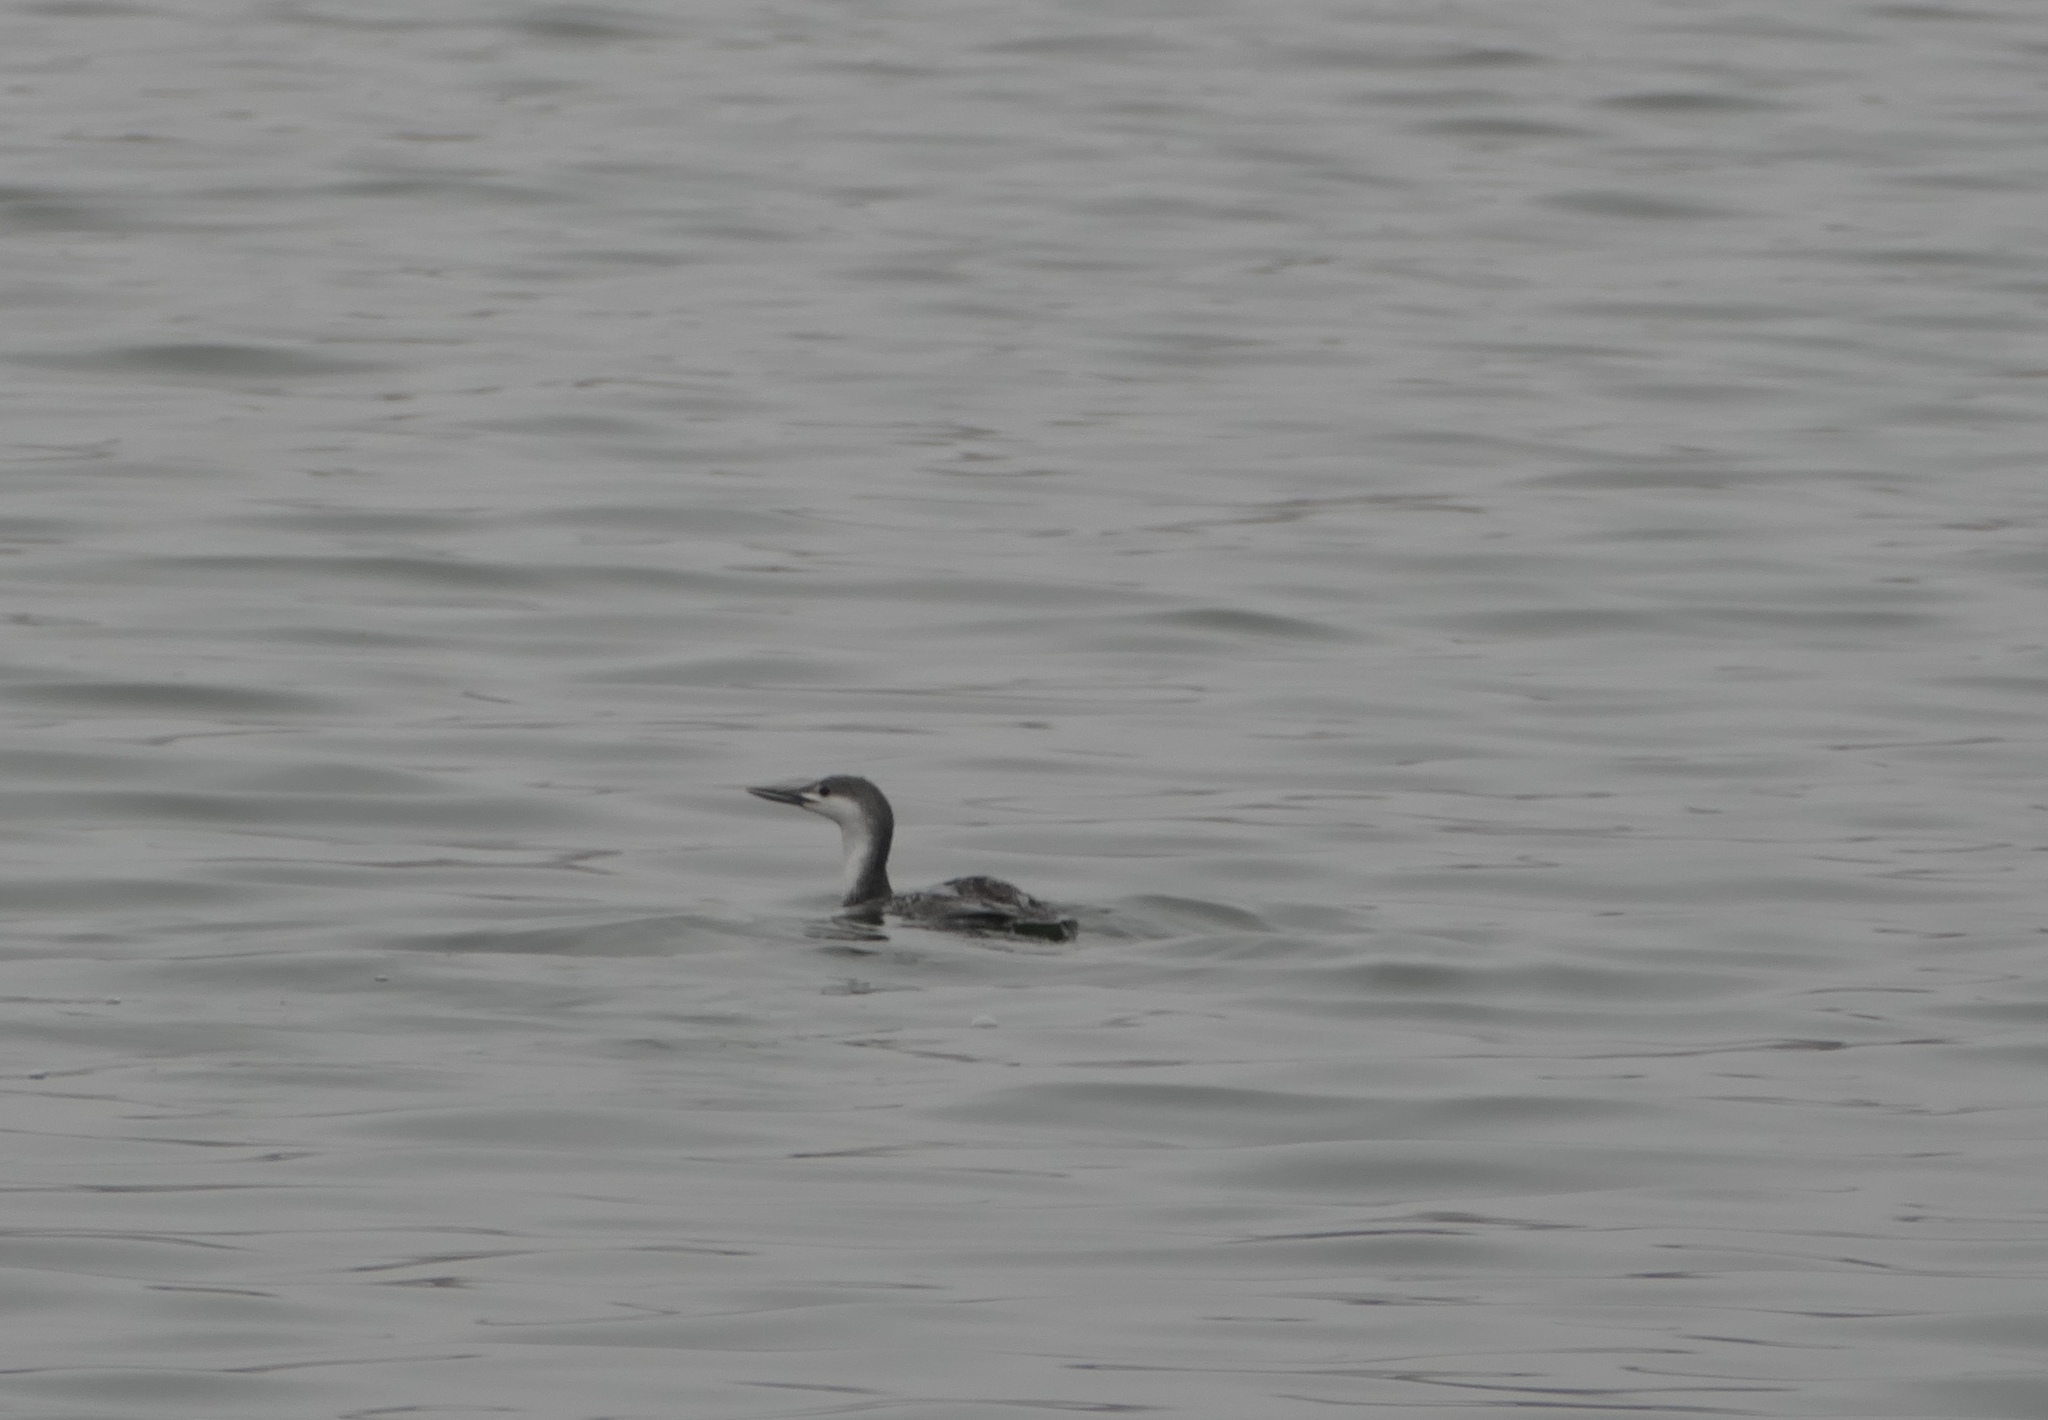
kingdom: Animalia
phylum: Chordata
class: Aves
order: Gaviiformes
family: Gaviidae
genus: Gavia
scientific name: Gavia stellata
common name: Red-throated loon
